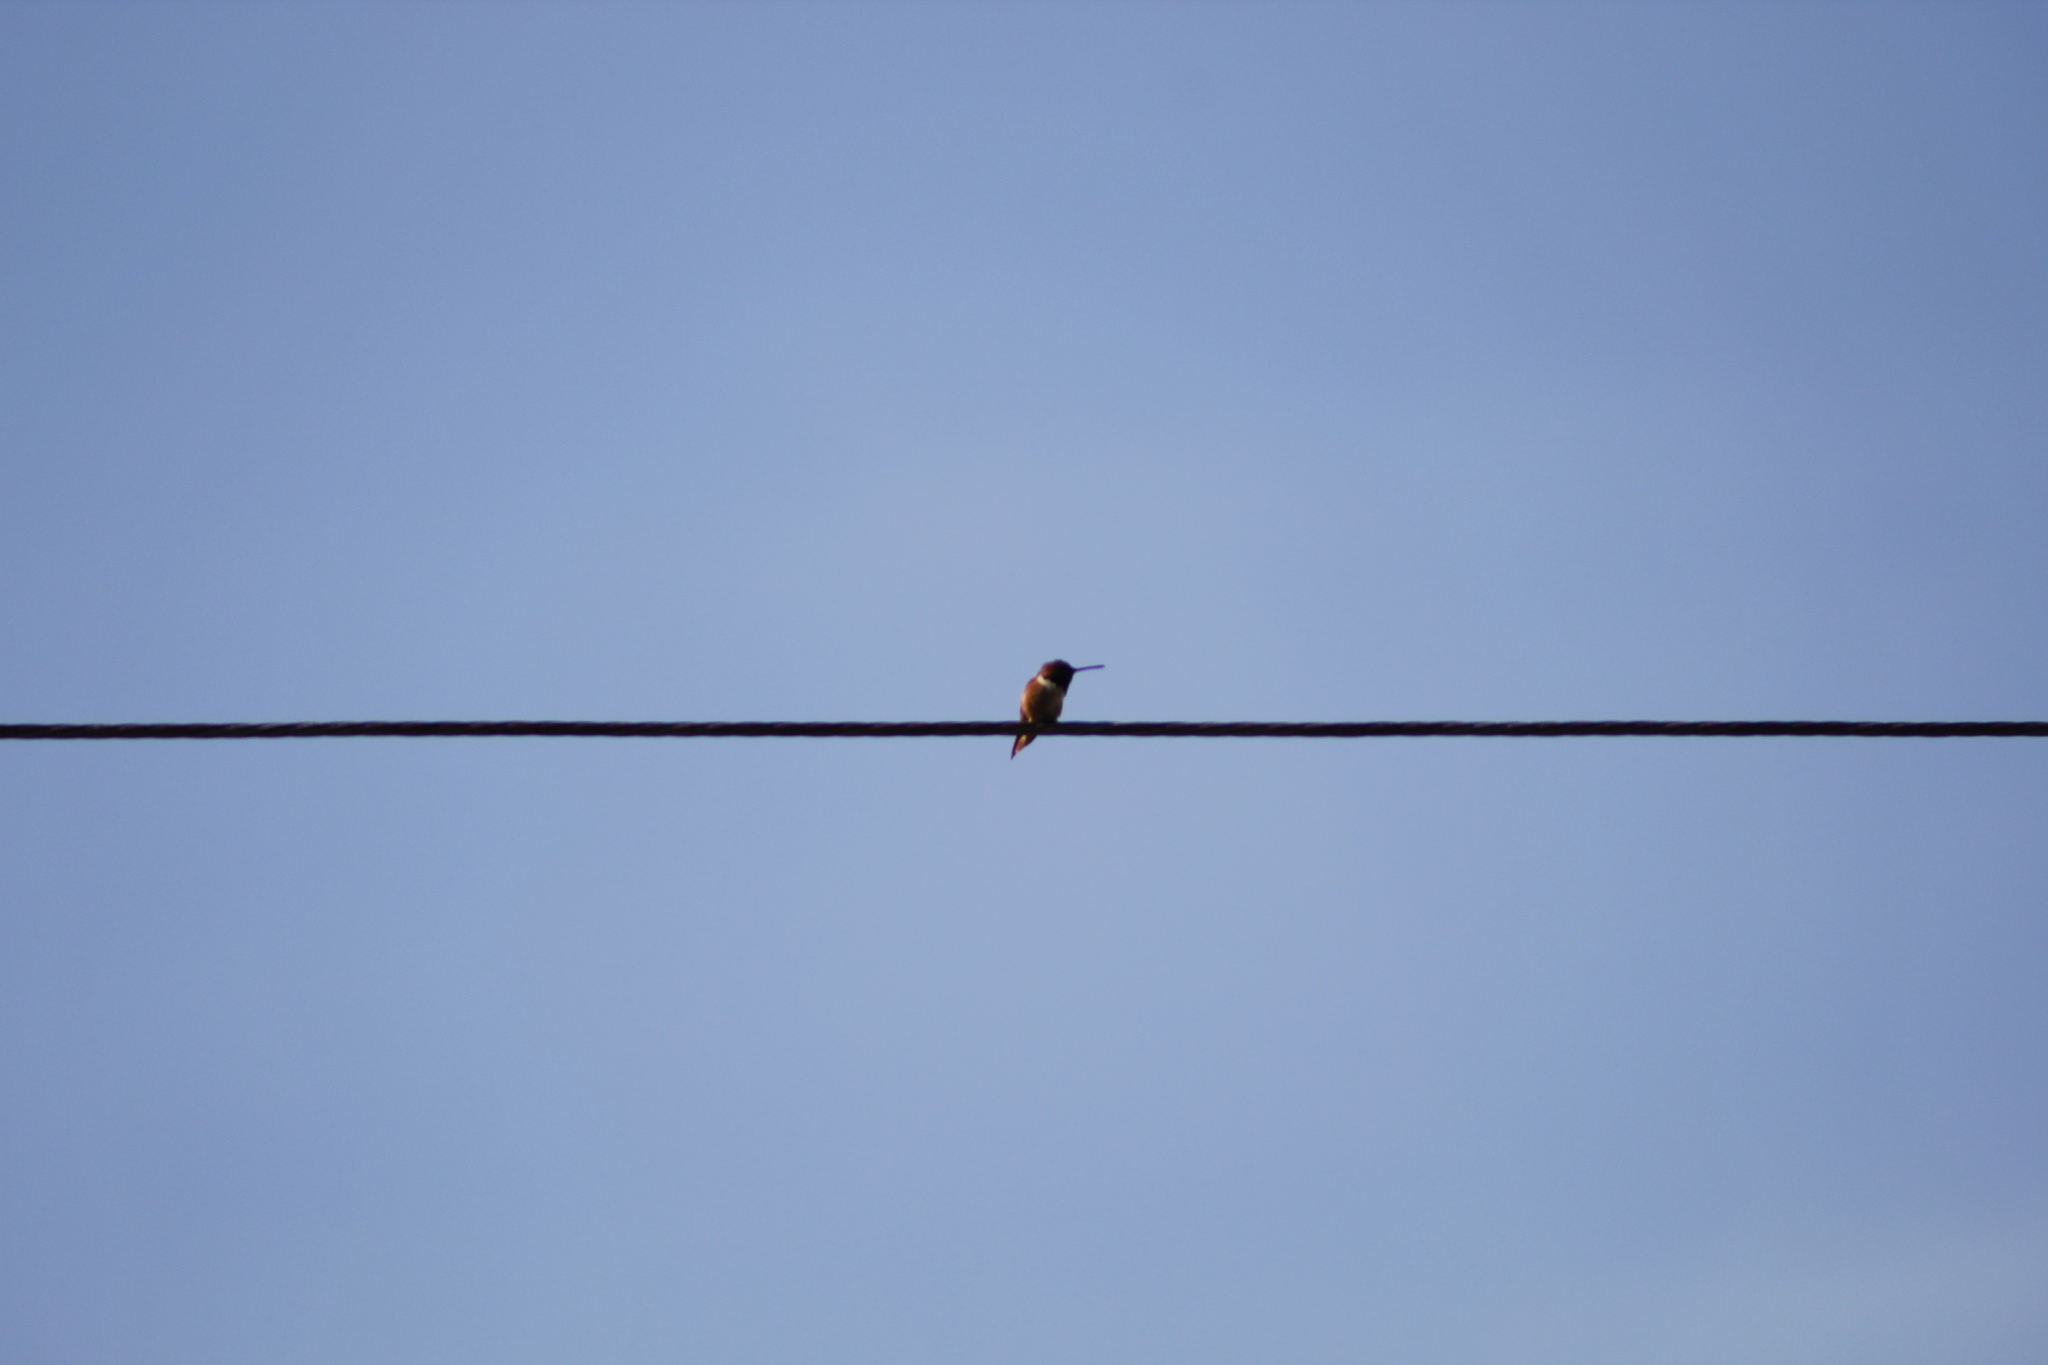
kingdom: Animalia
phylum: Chordata
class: Aves
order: Apodiformes
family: Trochilidae
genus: Selasphorus
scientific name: Selasphorus sasin
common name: Allen's hummingbird
